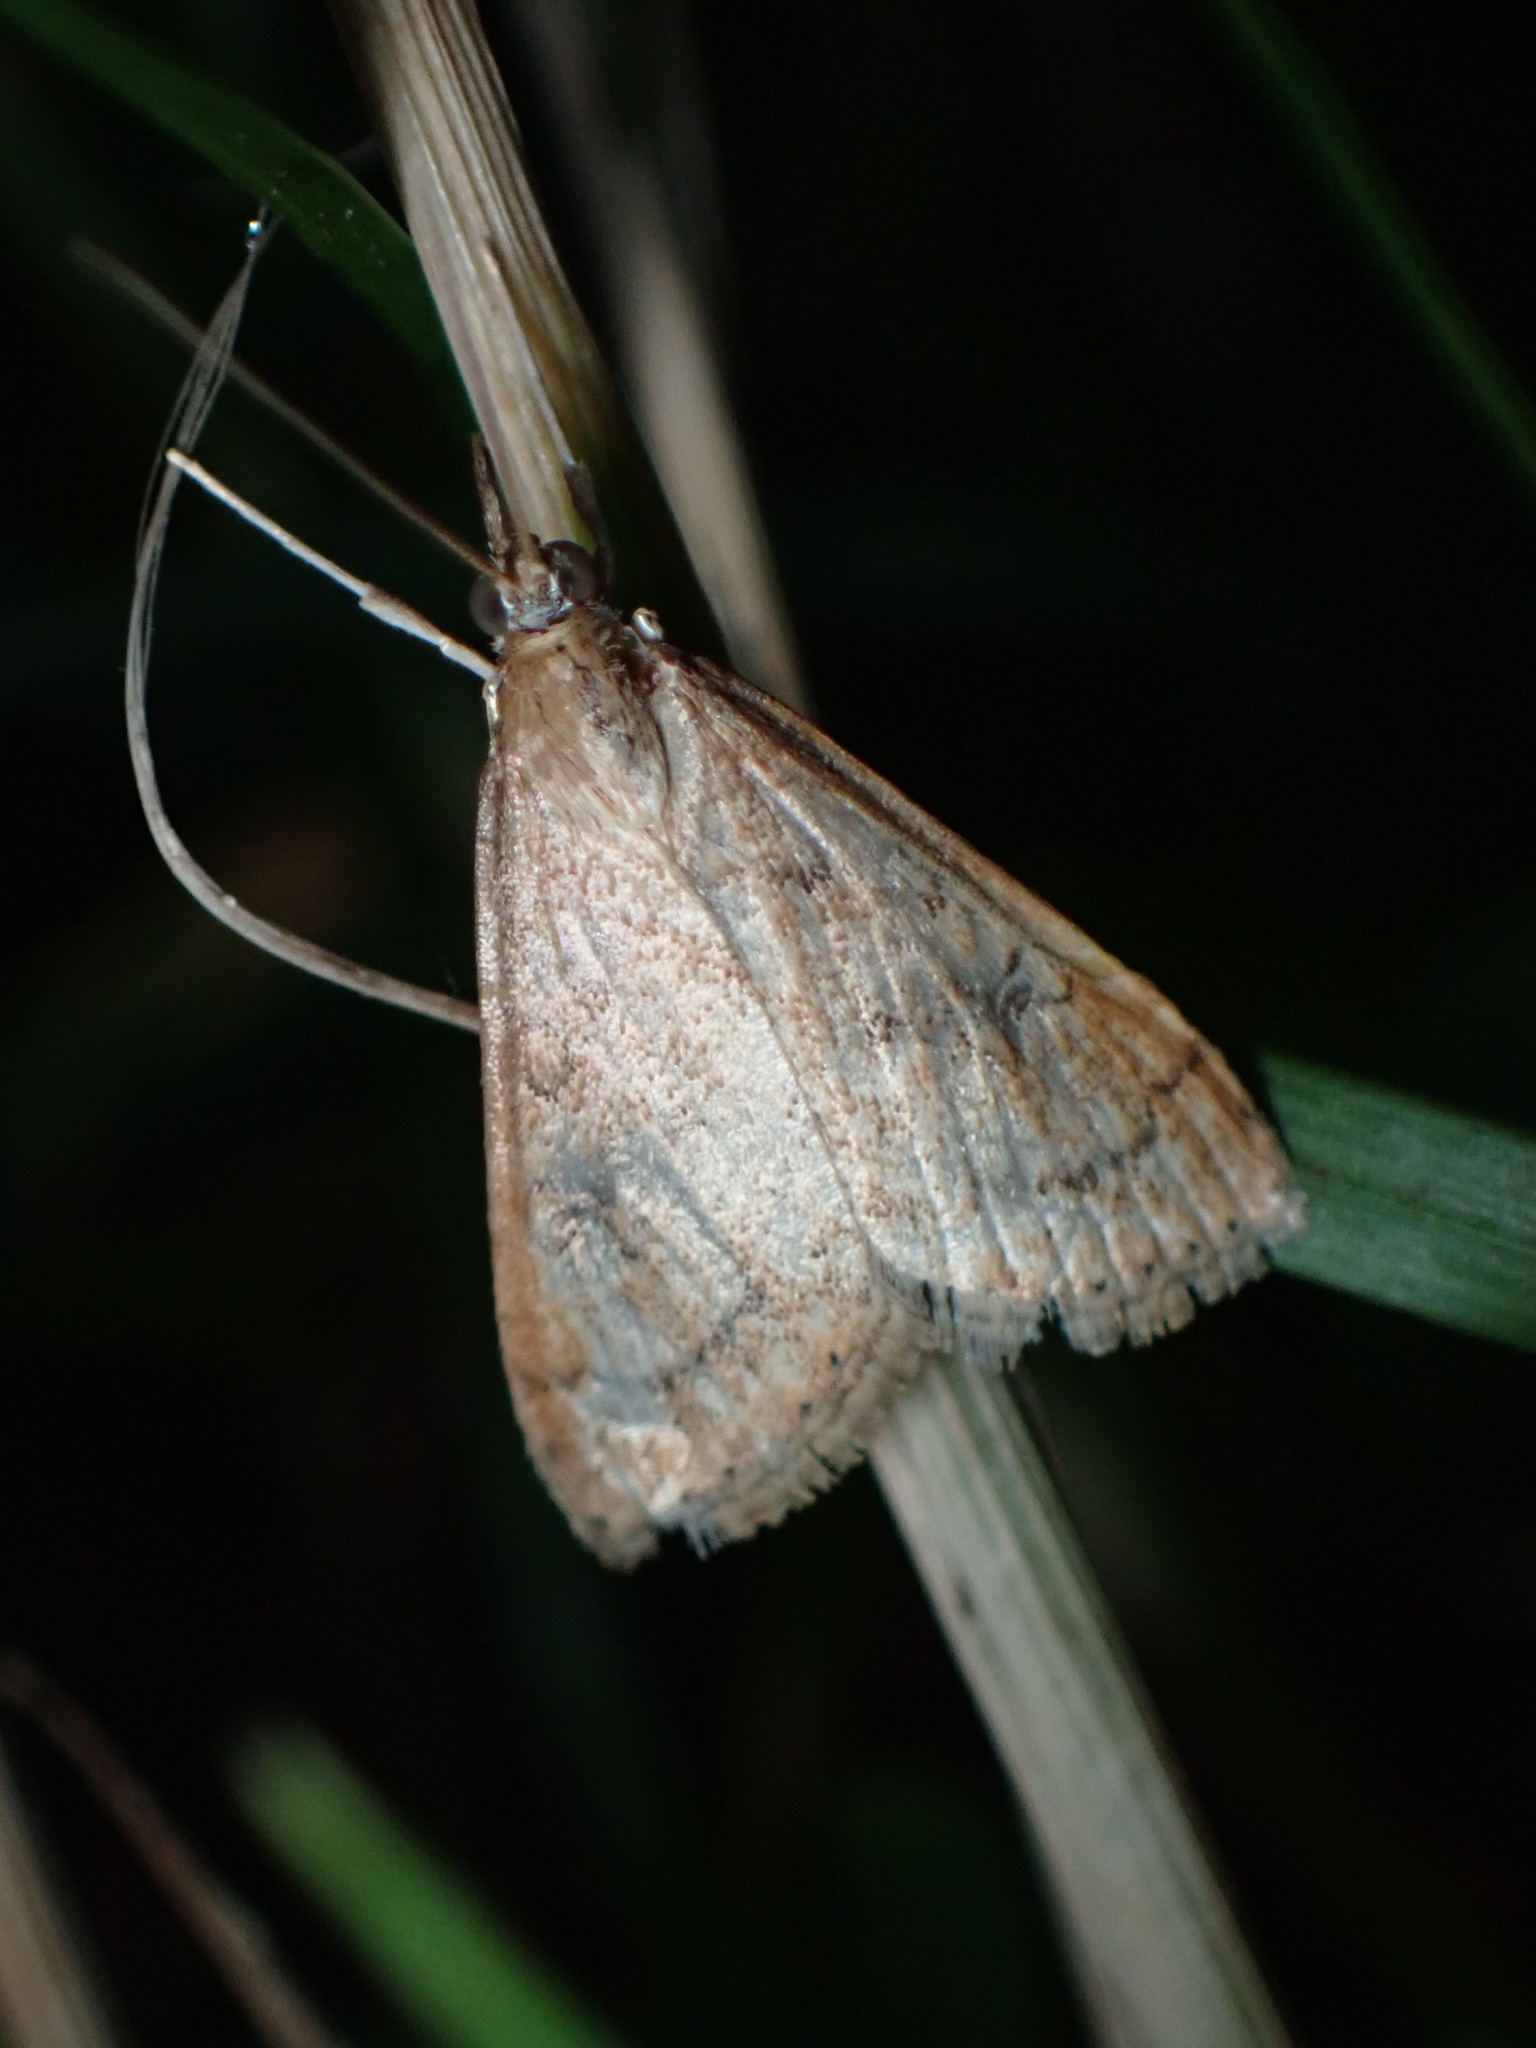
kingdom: Animalia
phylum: Arthropoda
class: Insecta
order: Lepidoptera
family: Crambidae
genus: Udea
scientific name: Udea rubigalis
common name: Celery leaftier moth
